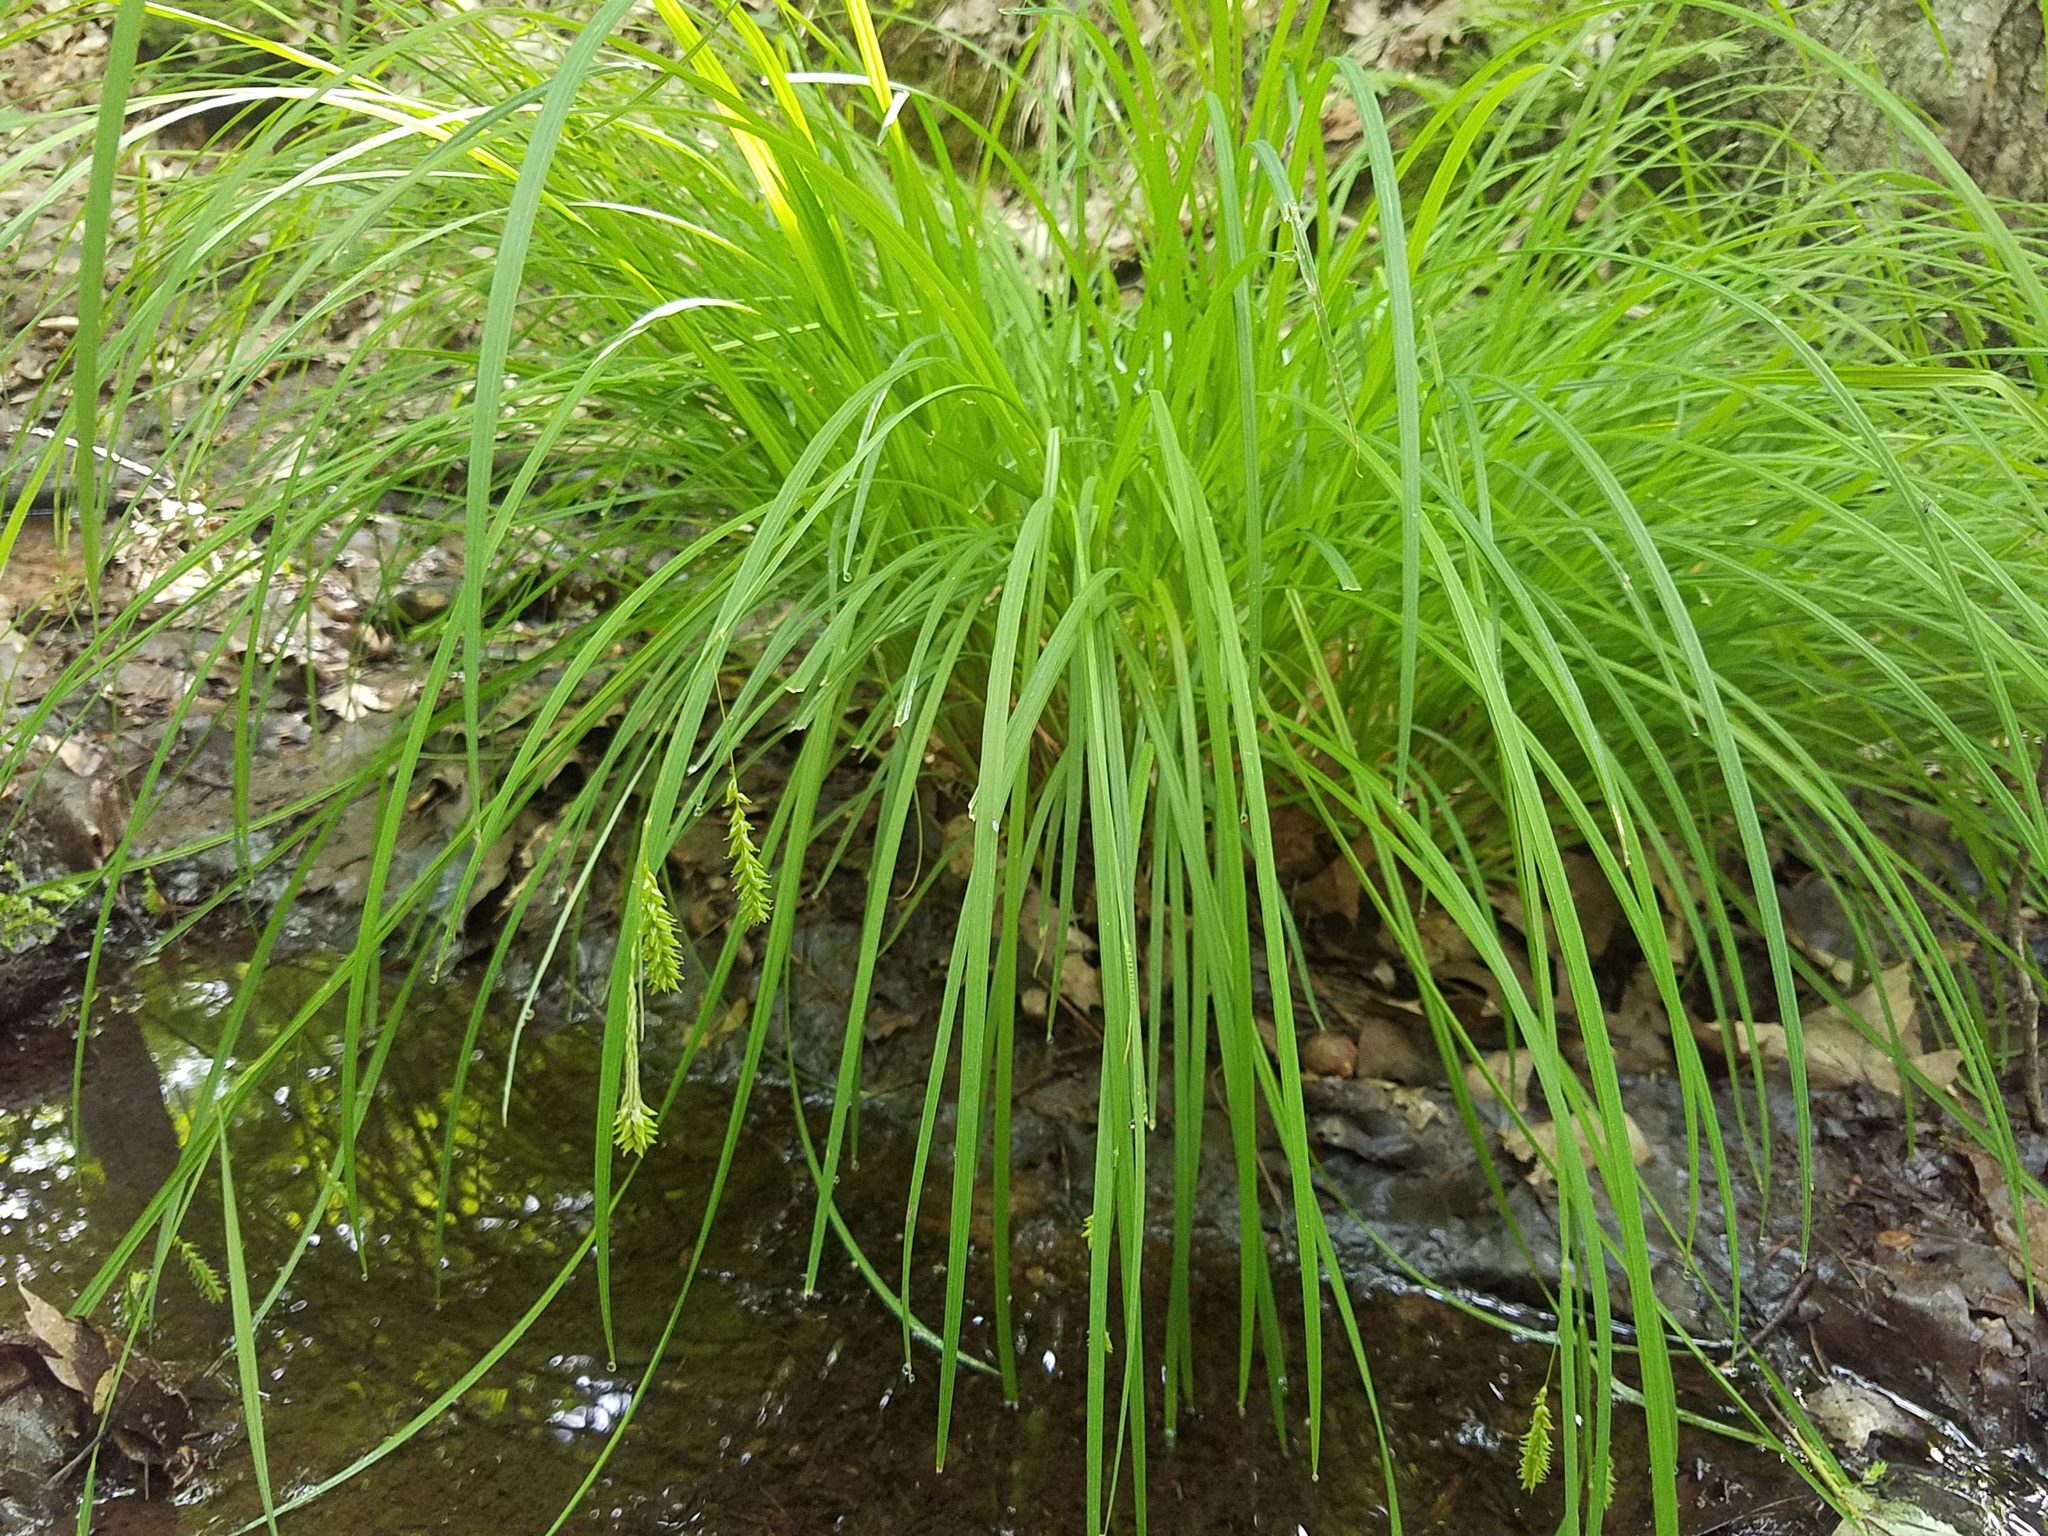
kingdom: Plantae
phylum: Tracheophyta
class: Liliopsida
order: Poales
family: Cyperaceae
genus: Carex
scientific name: Carex prasina
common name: Drooping sedge
